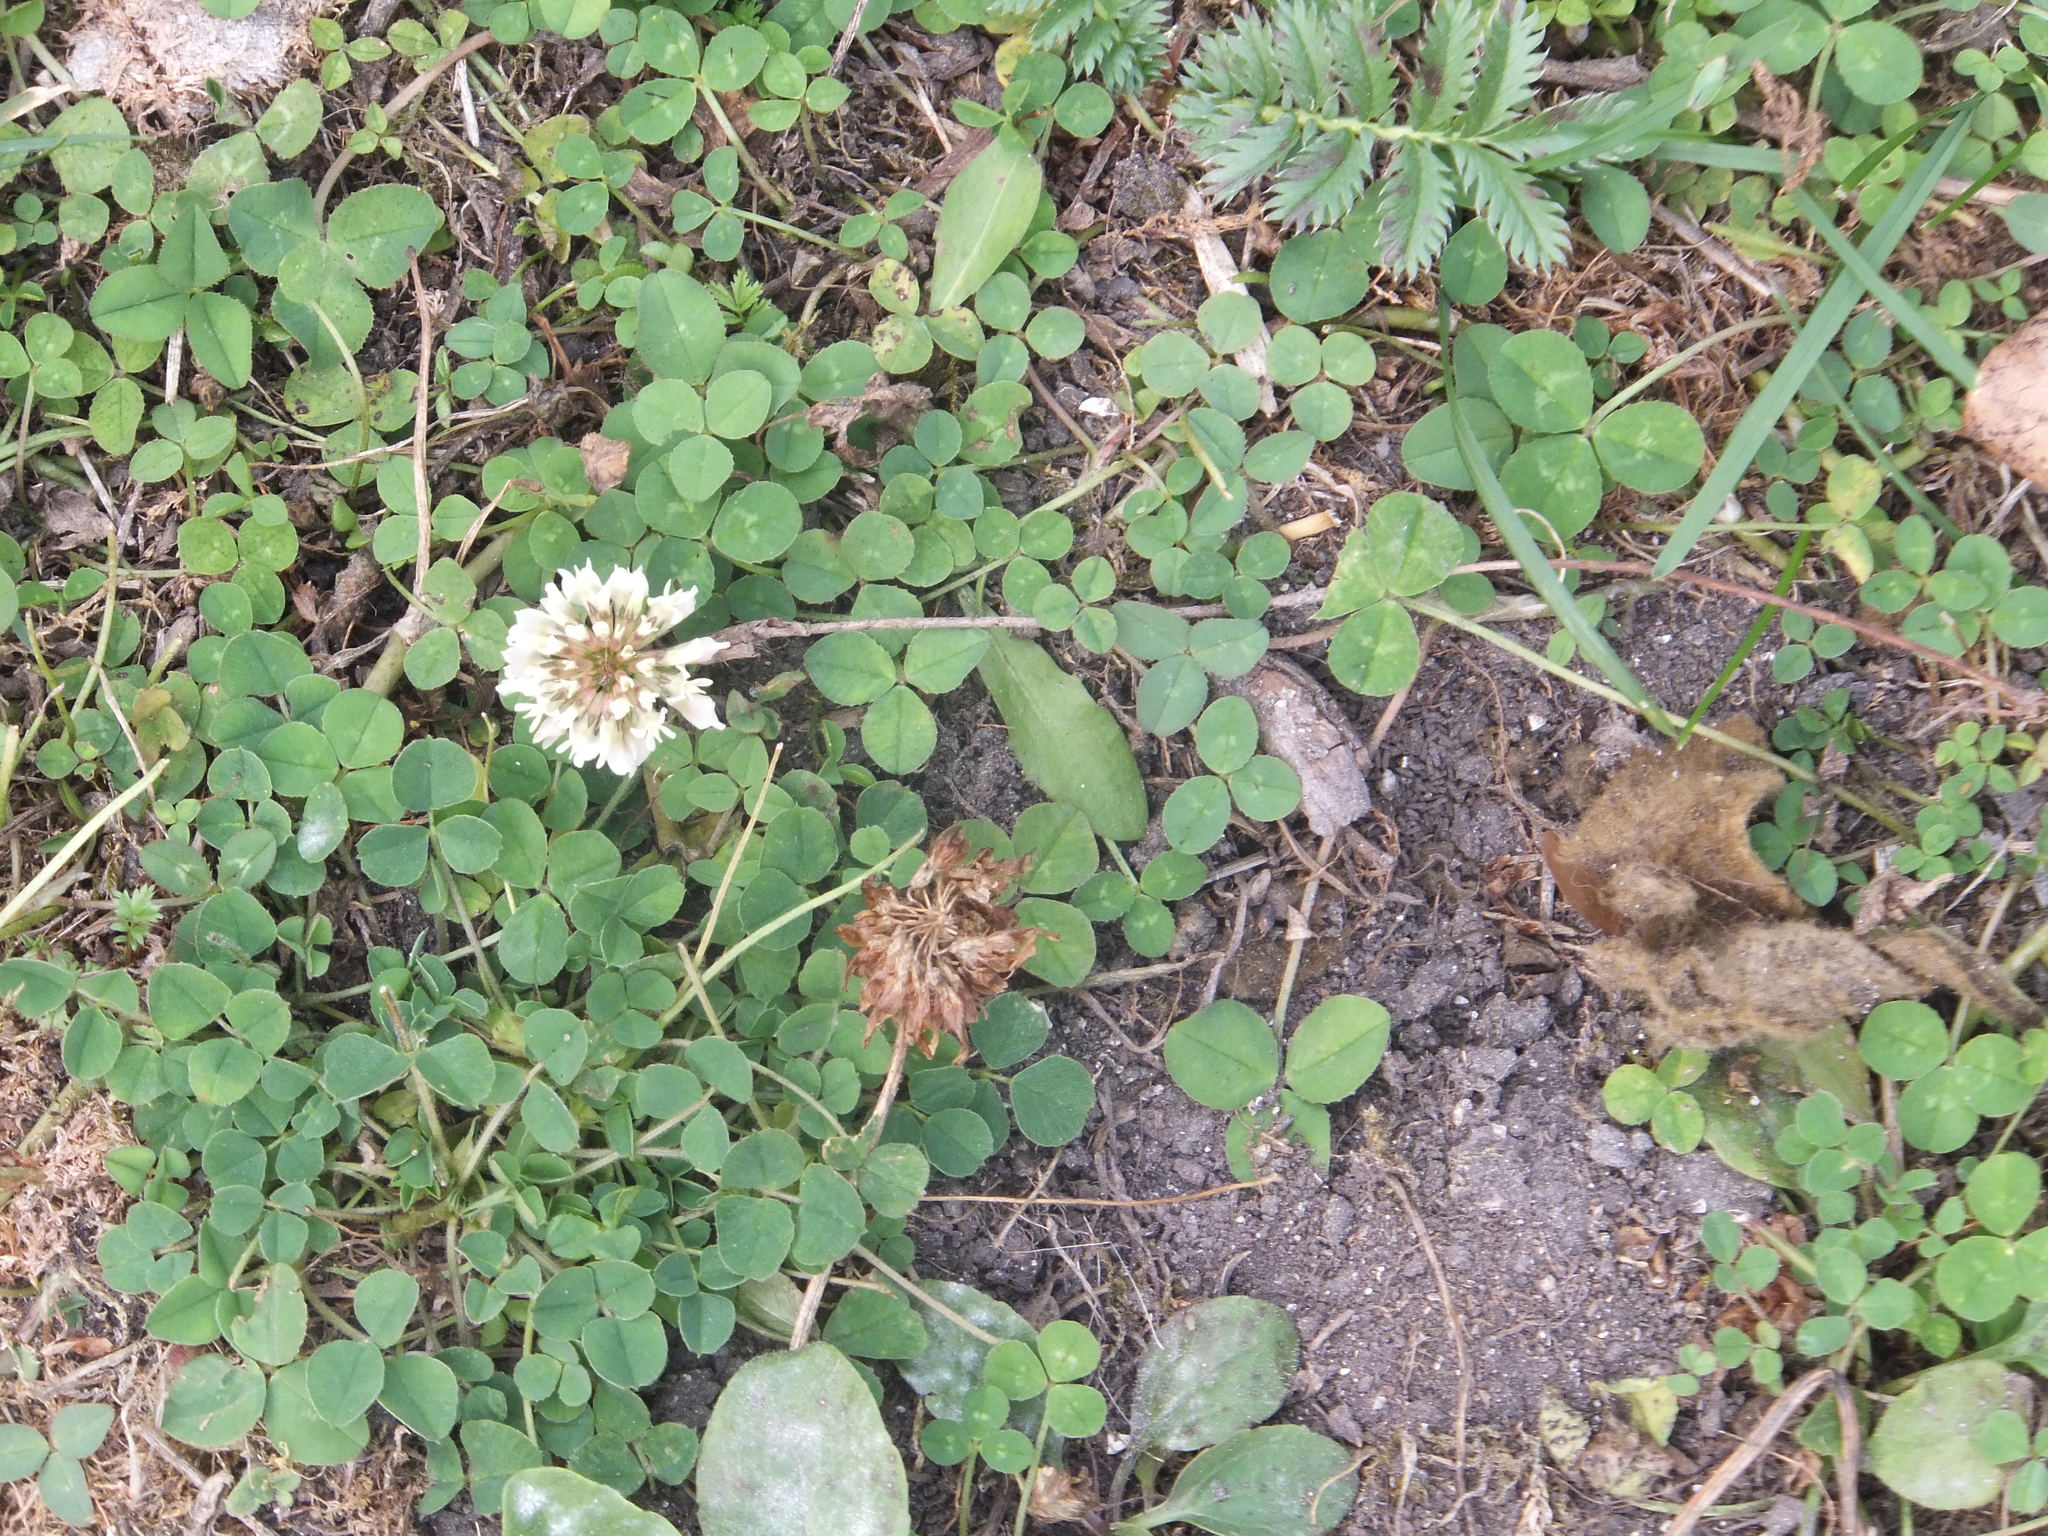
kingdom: Plantae
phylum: Tracheophyta
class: Magnoliopsida
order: Fabales
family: Fabaceae
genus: Trifolium
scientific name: Trifolium repens
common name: White clover
